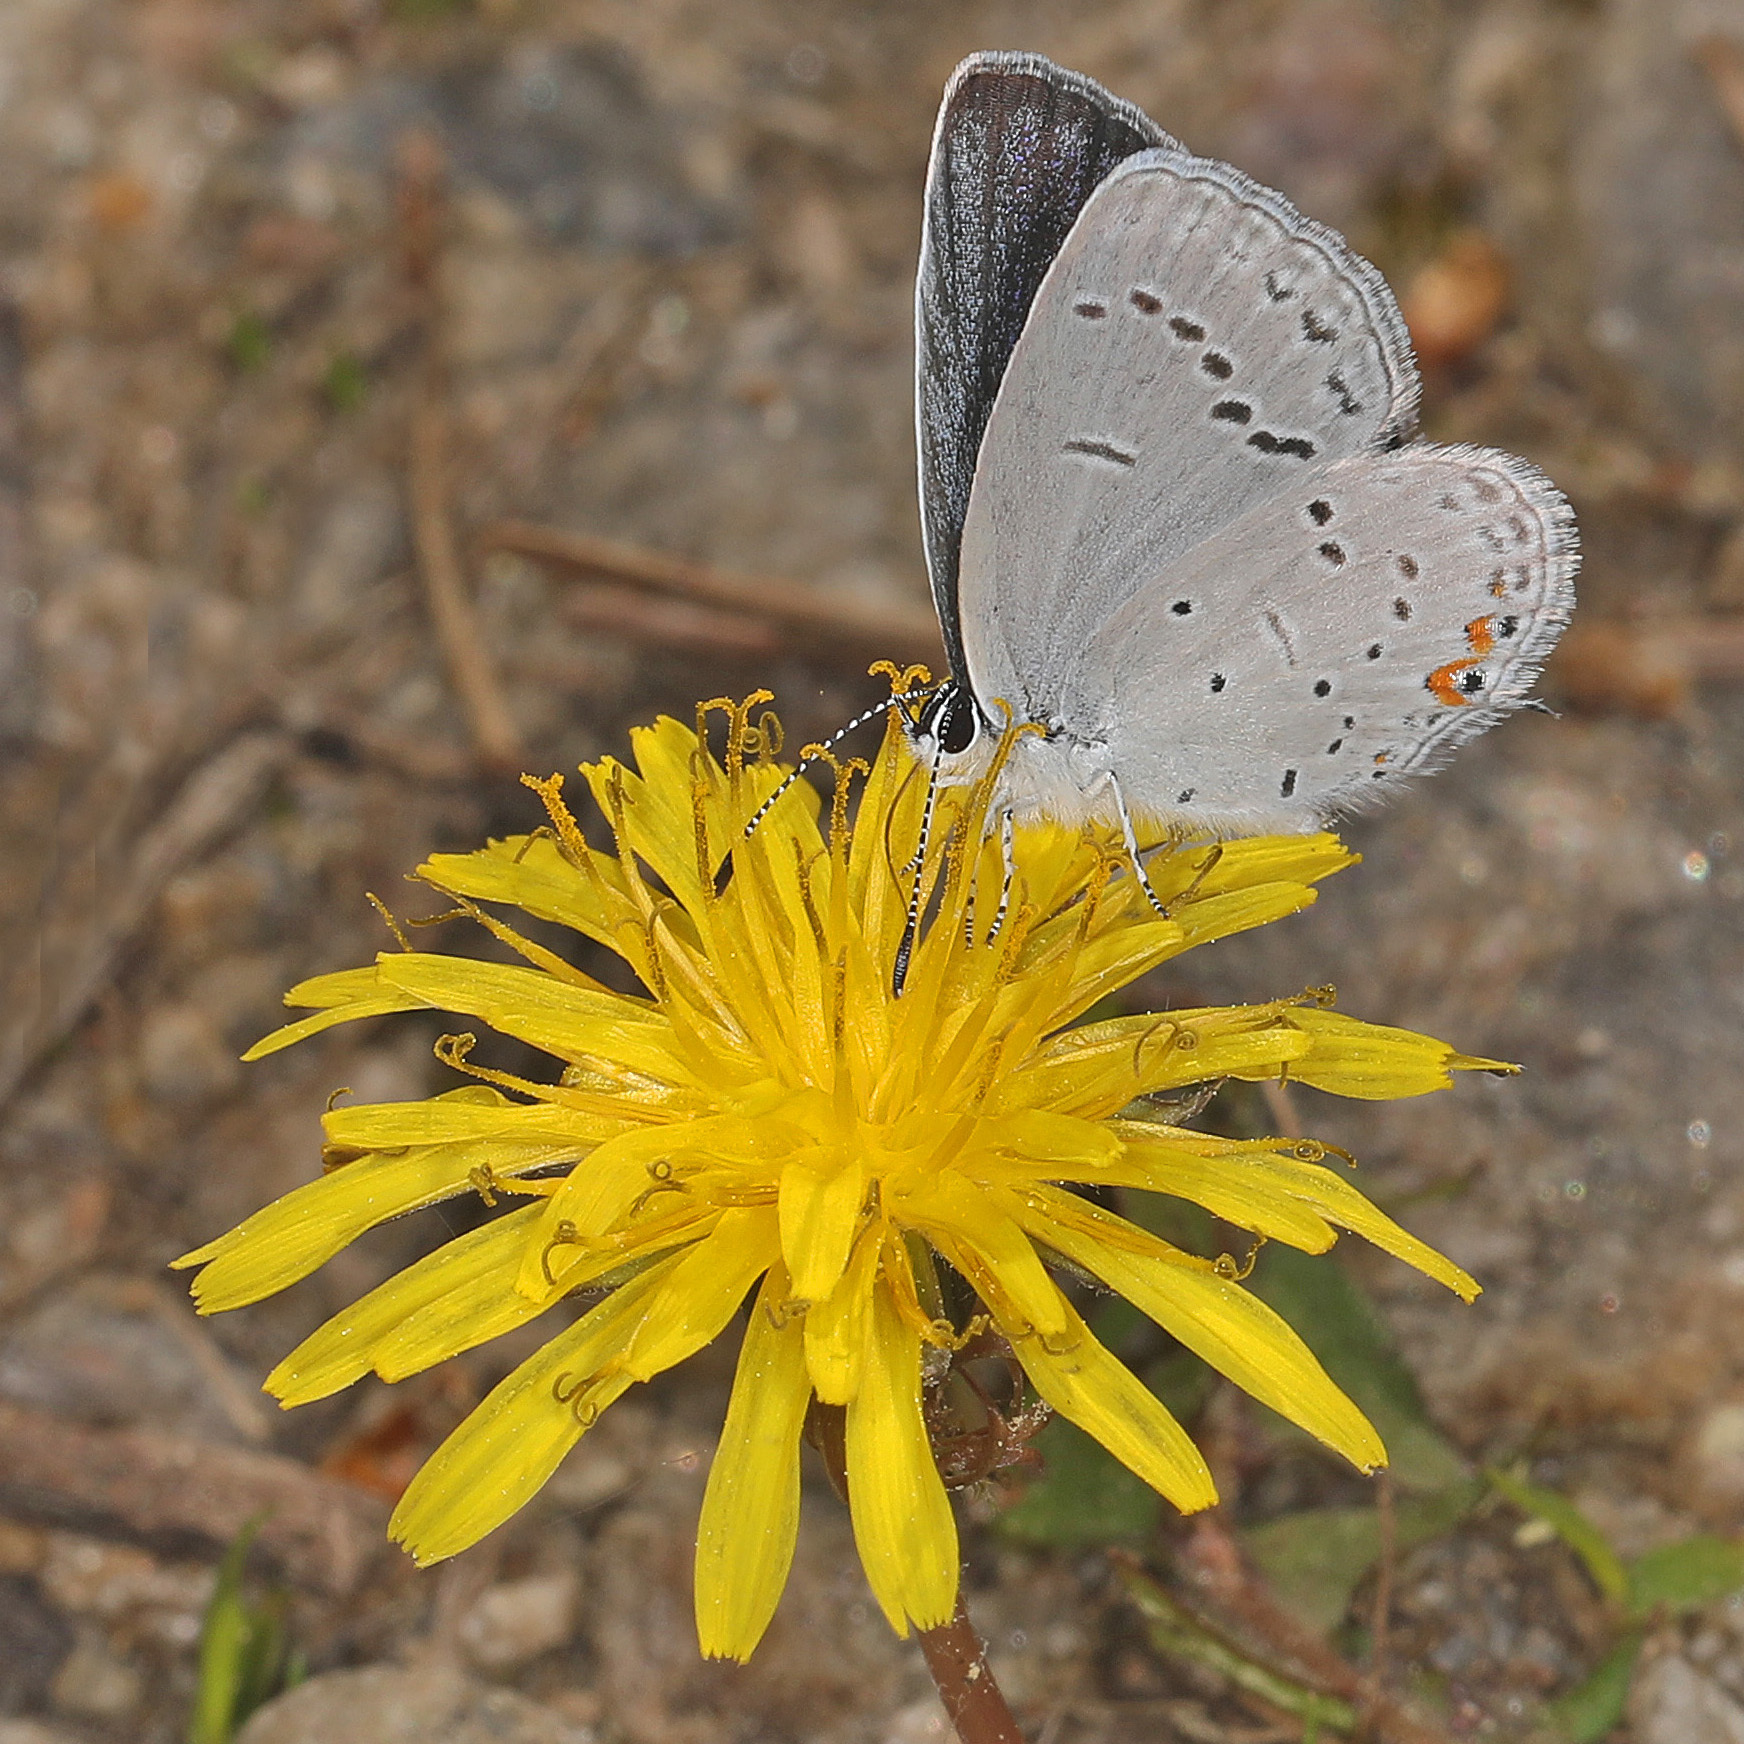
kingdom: Animalia
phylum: Arthropoda
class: Insecta
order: Lepidoptera
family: Lycaenidae
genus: Elkalyce
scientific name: Elkalyce comyntas
